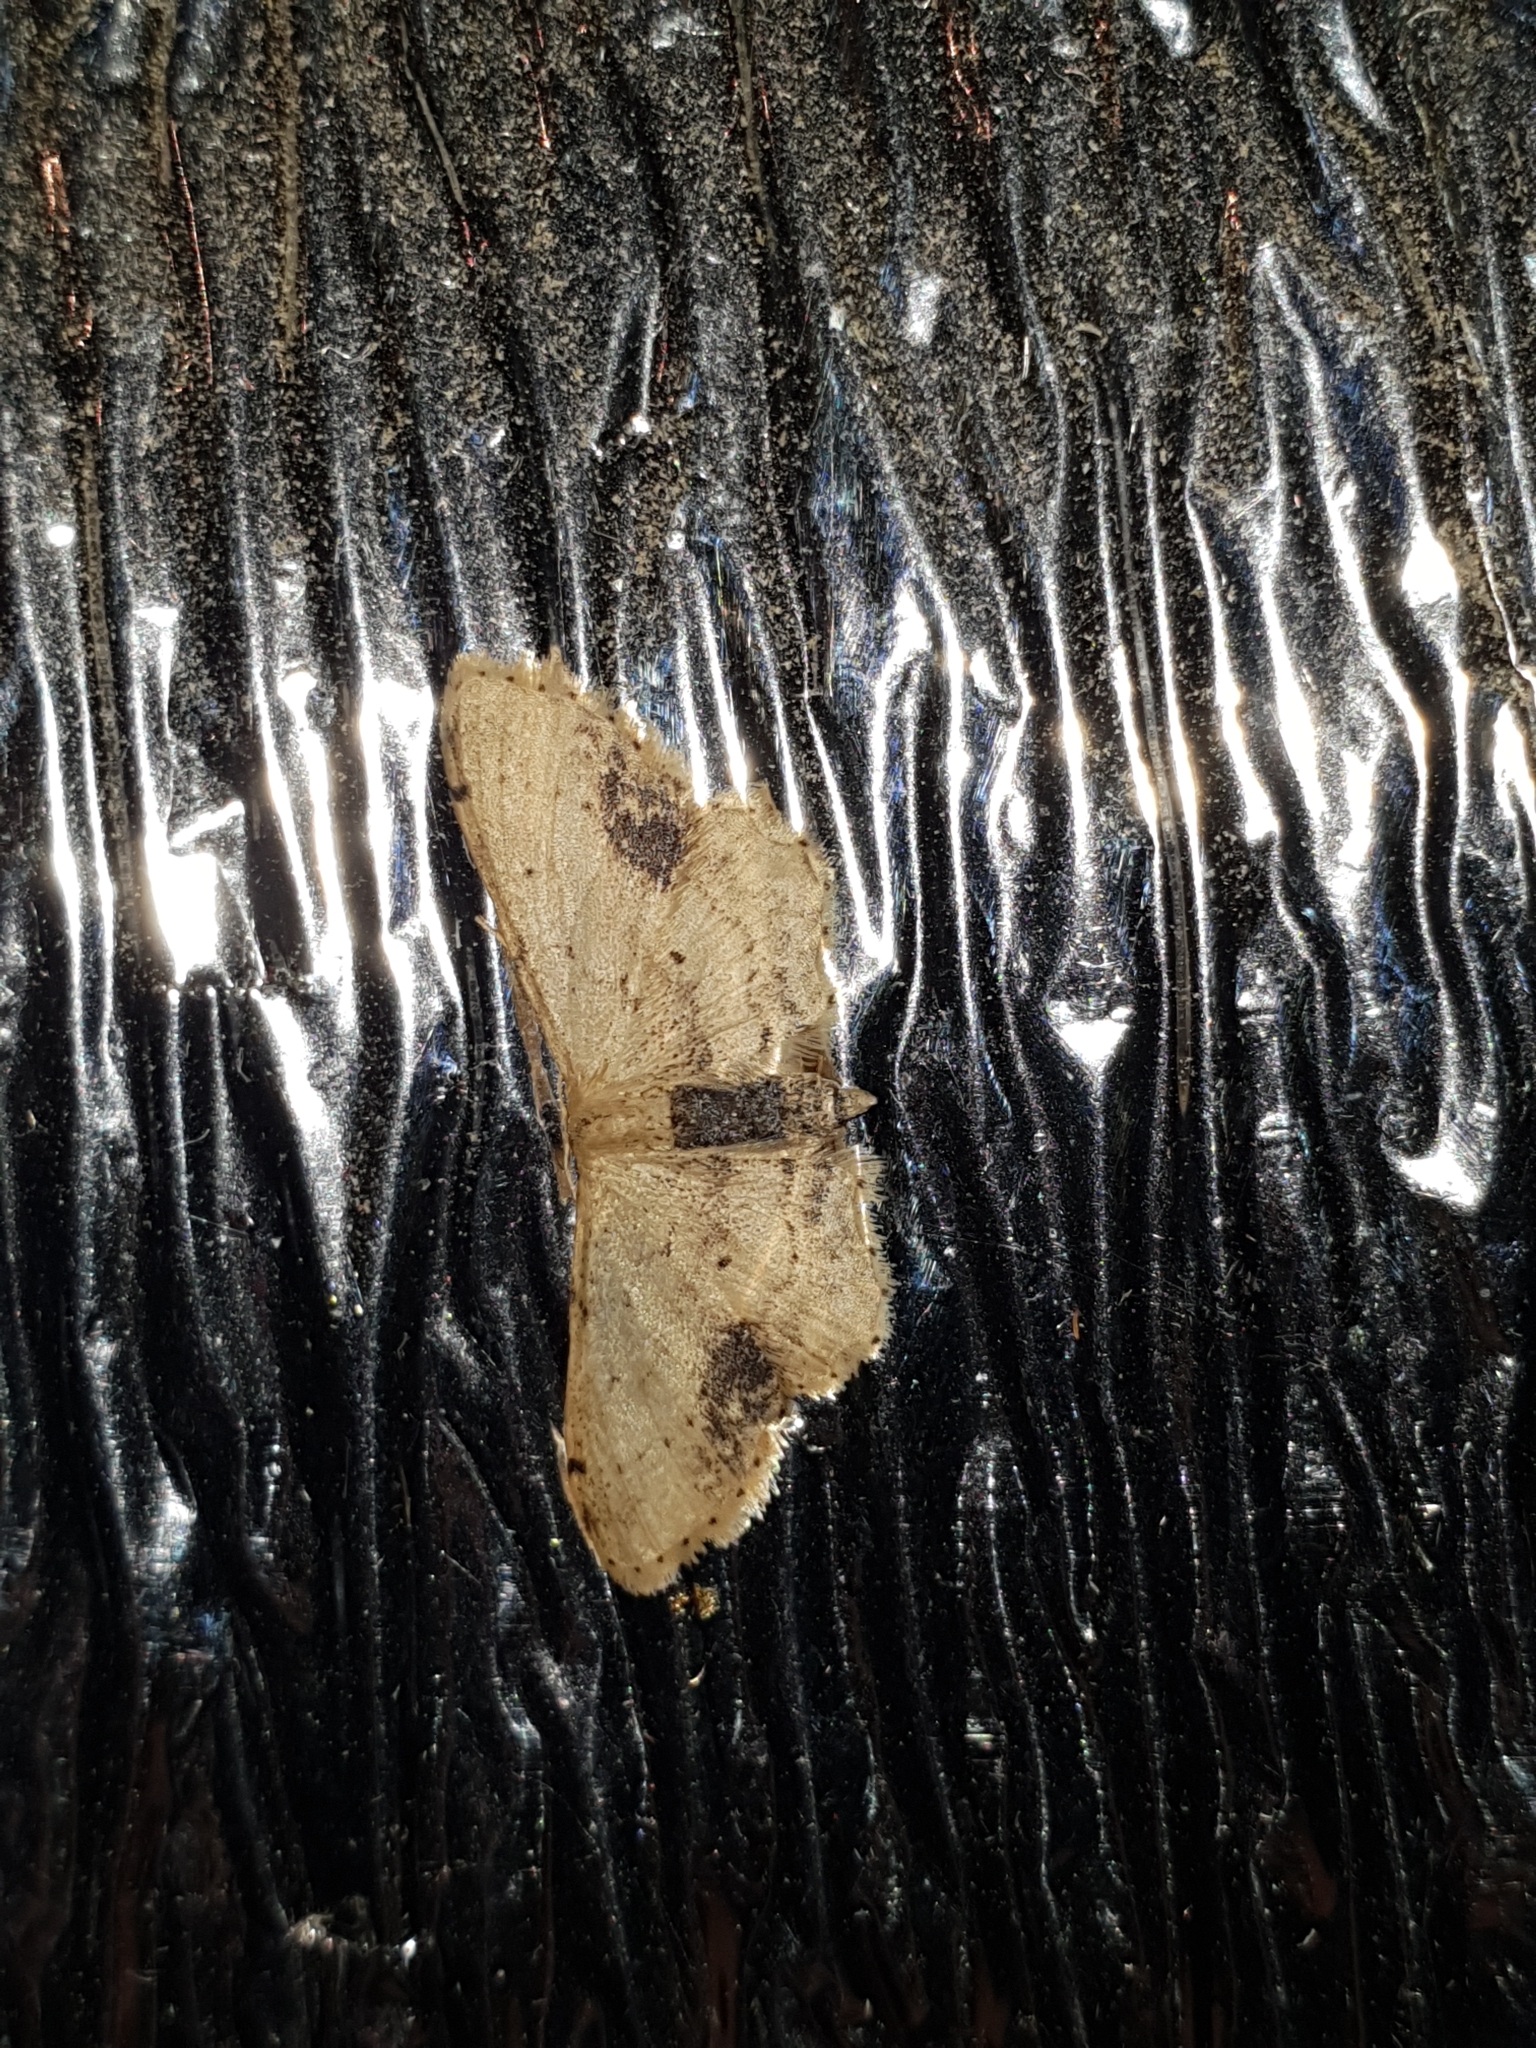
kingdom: Animalia
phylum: Arthropoda
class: Insecta
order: Lepidoptera
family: Geometridae
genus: Idaea
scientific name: Idaea dimidiata
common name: Single-dotted wave
